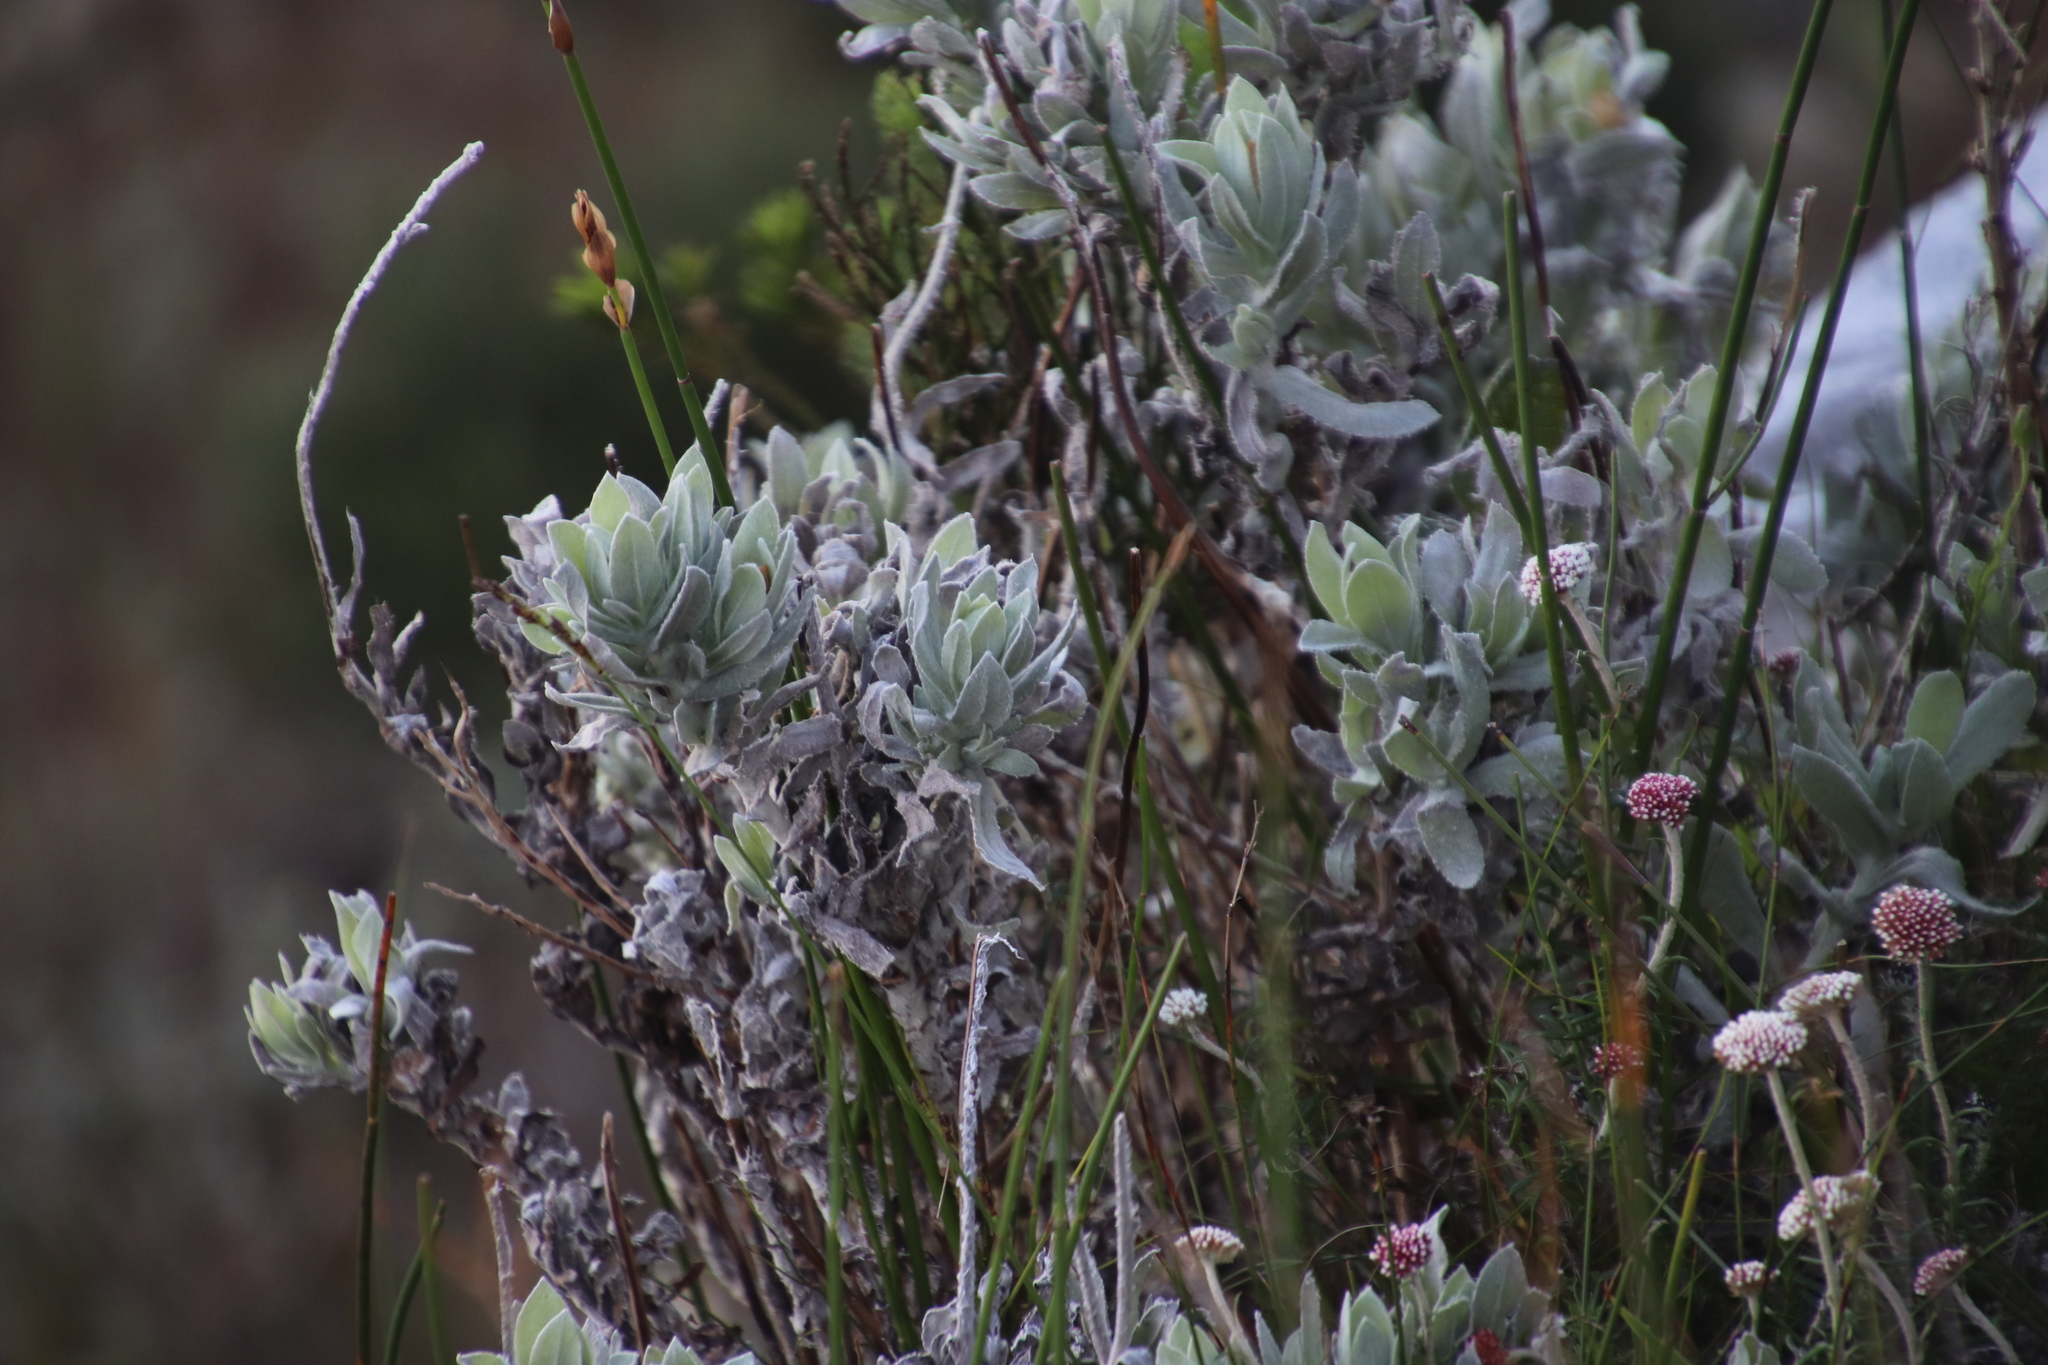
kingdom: Plantae
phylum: Tracheophyta
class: Magnoliopsida
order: Asterales
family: Asteraceae
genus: Syncarpha
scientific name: Syncarpha vestita
